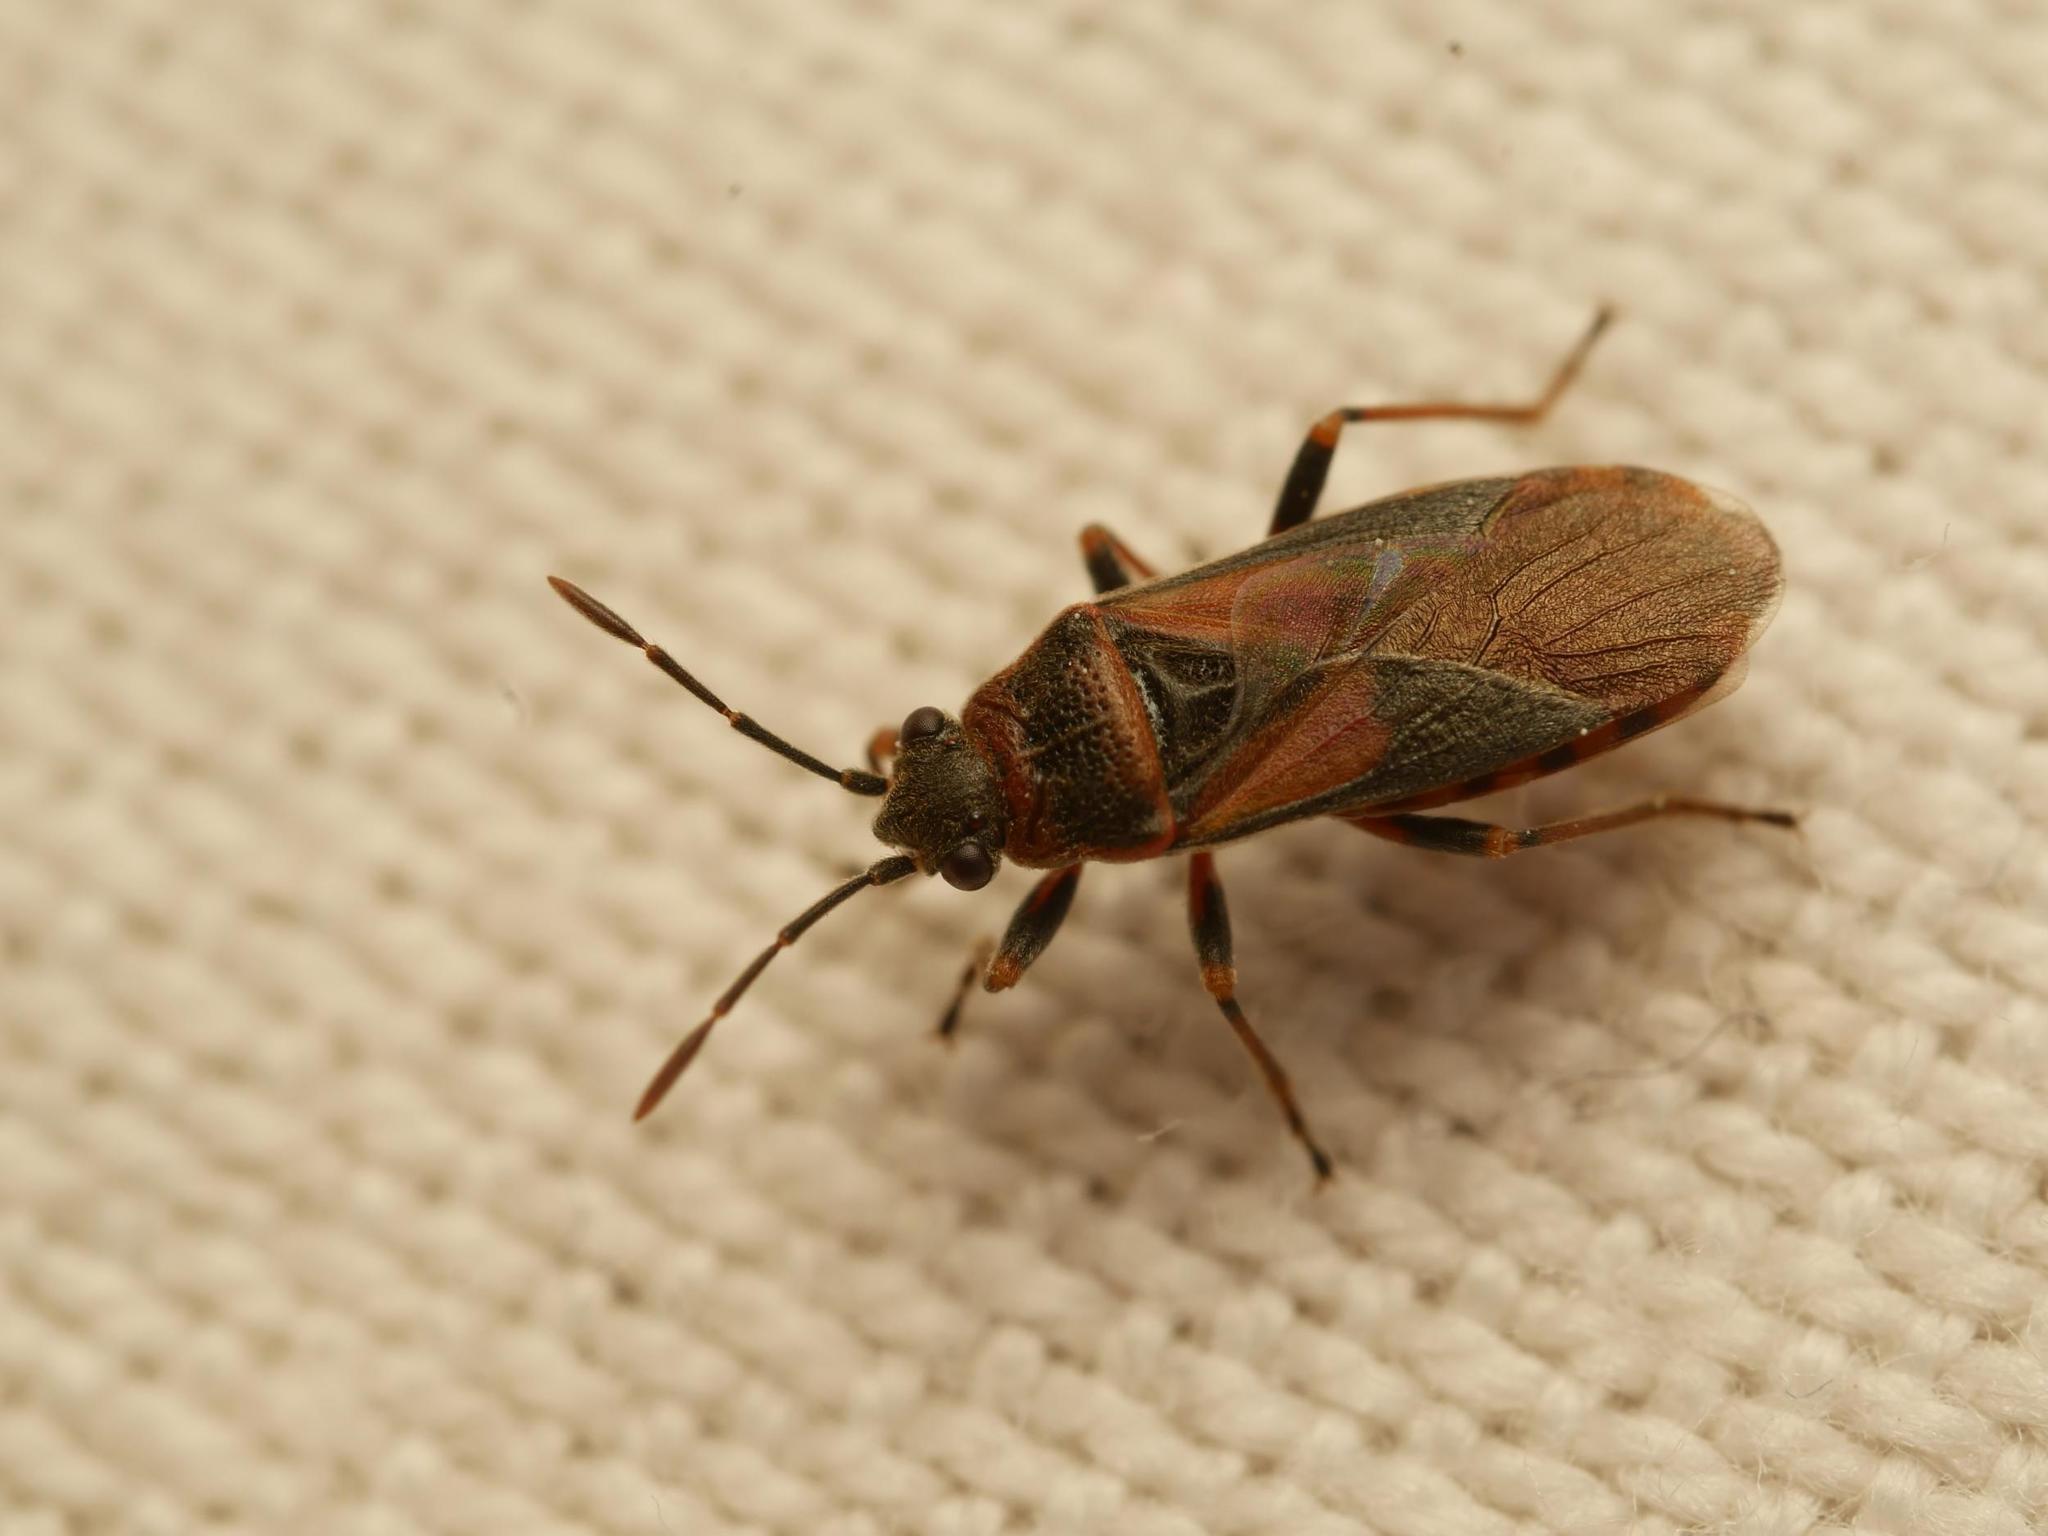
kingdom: Animalia
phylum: Arthropoda
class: Insecta
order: Hemiptera
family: Lygaeidae
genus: Arocatus
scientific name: Arocatus melanocephalus
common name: Lygaeid bug
